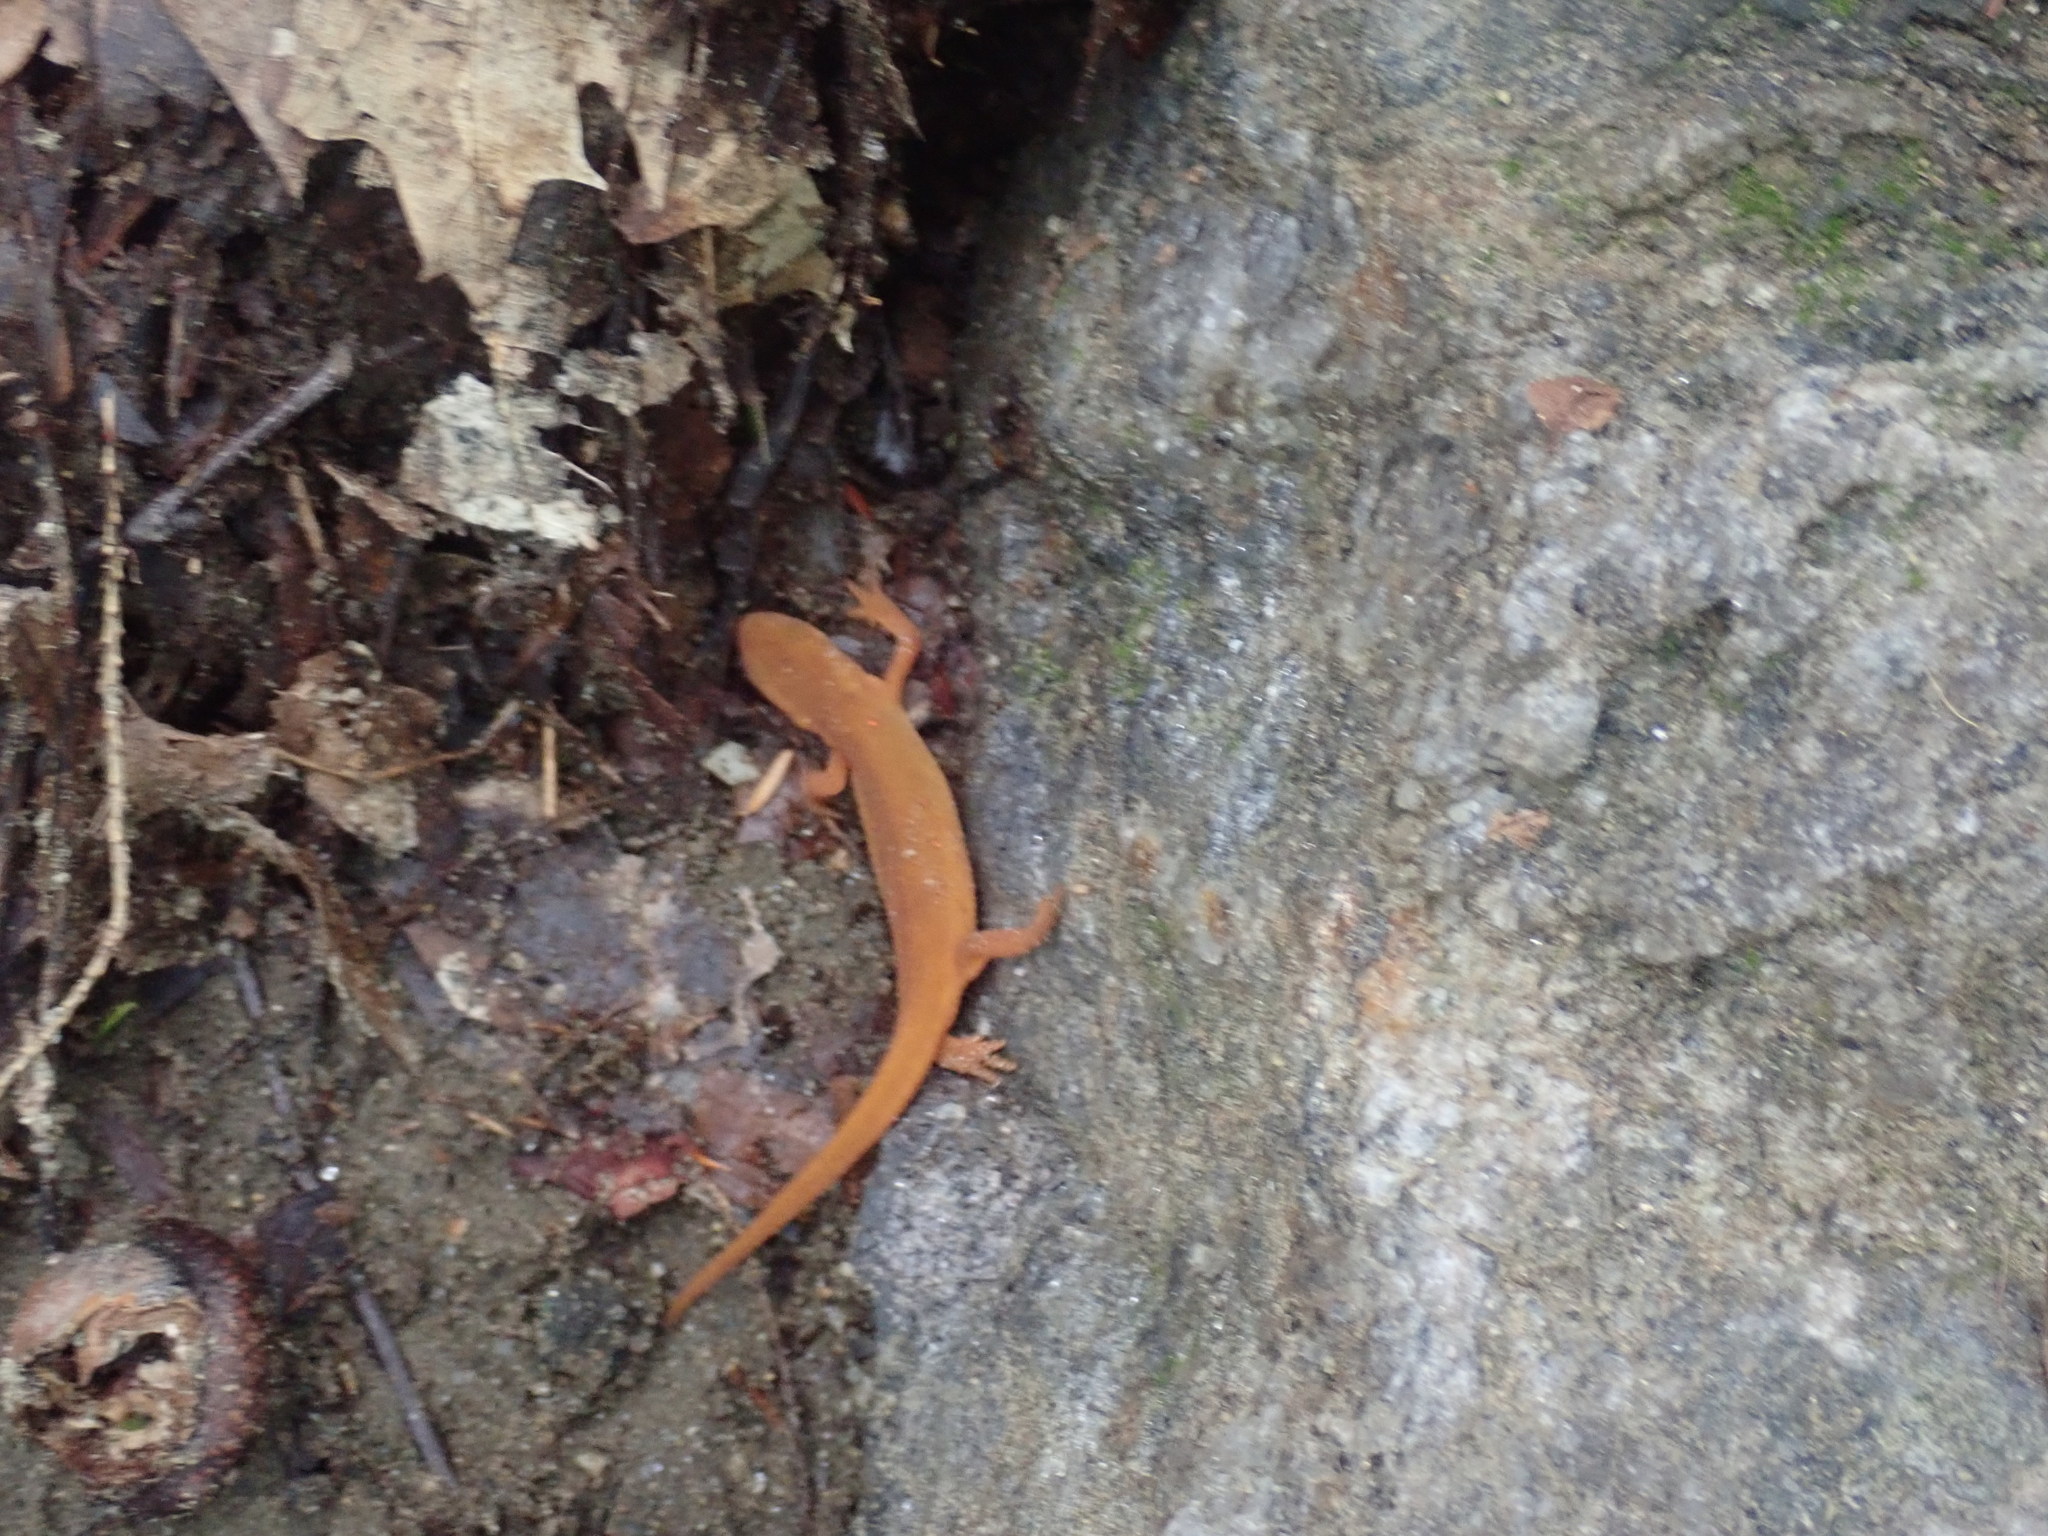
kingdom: Animalia
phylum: Chordata
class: Amphibia
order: Caudata
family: Salamandridae
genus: Notophthalmus
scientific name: Notophthalmus viridescens
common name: Eastern newt
